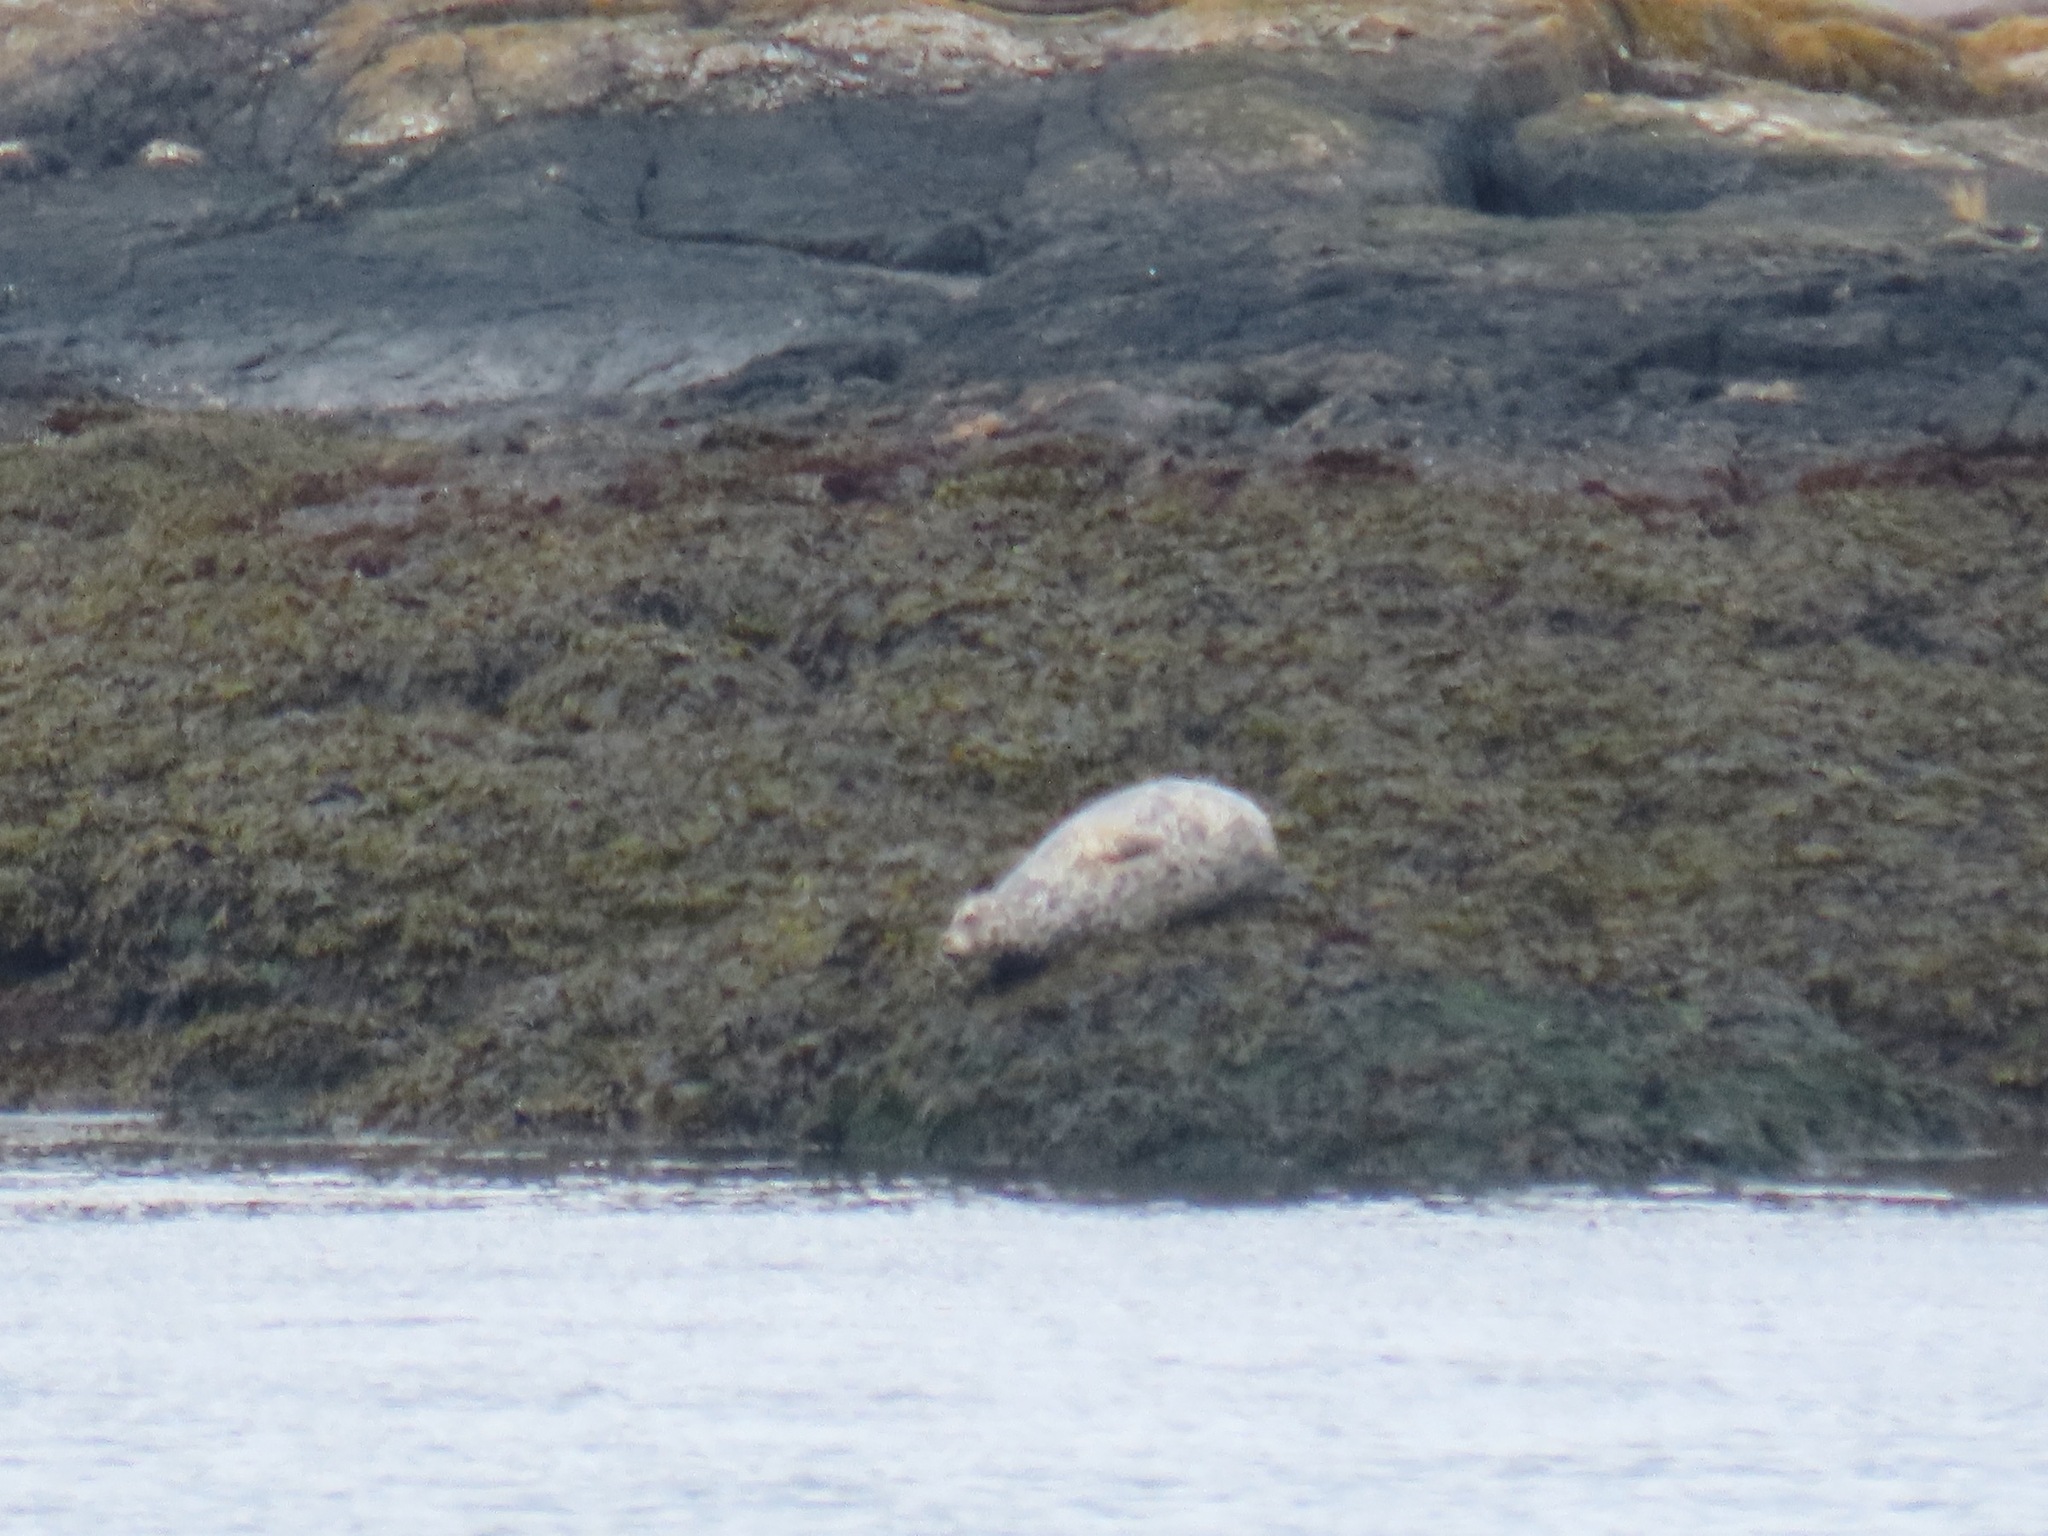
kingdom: Animalia
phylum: Chordata
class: Mammalia
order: Carnivora
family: Phocidae
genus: Phoca
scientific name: Phoca vitulina
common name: Harbor seal
